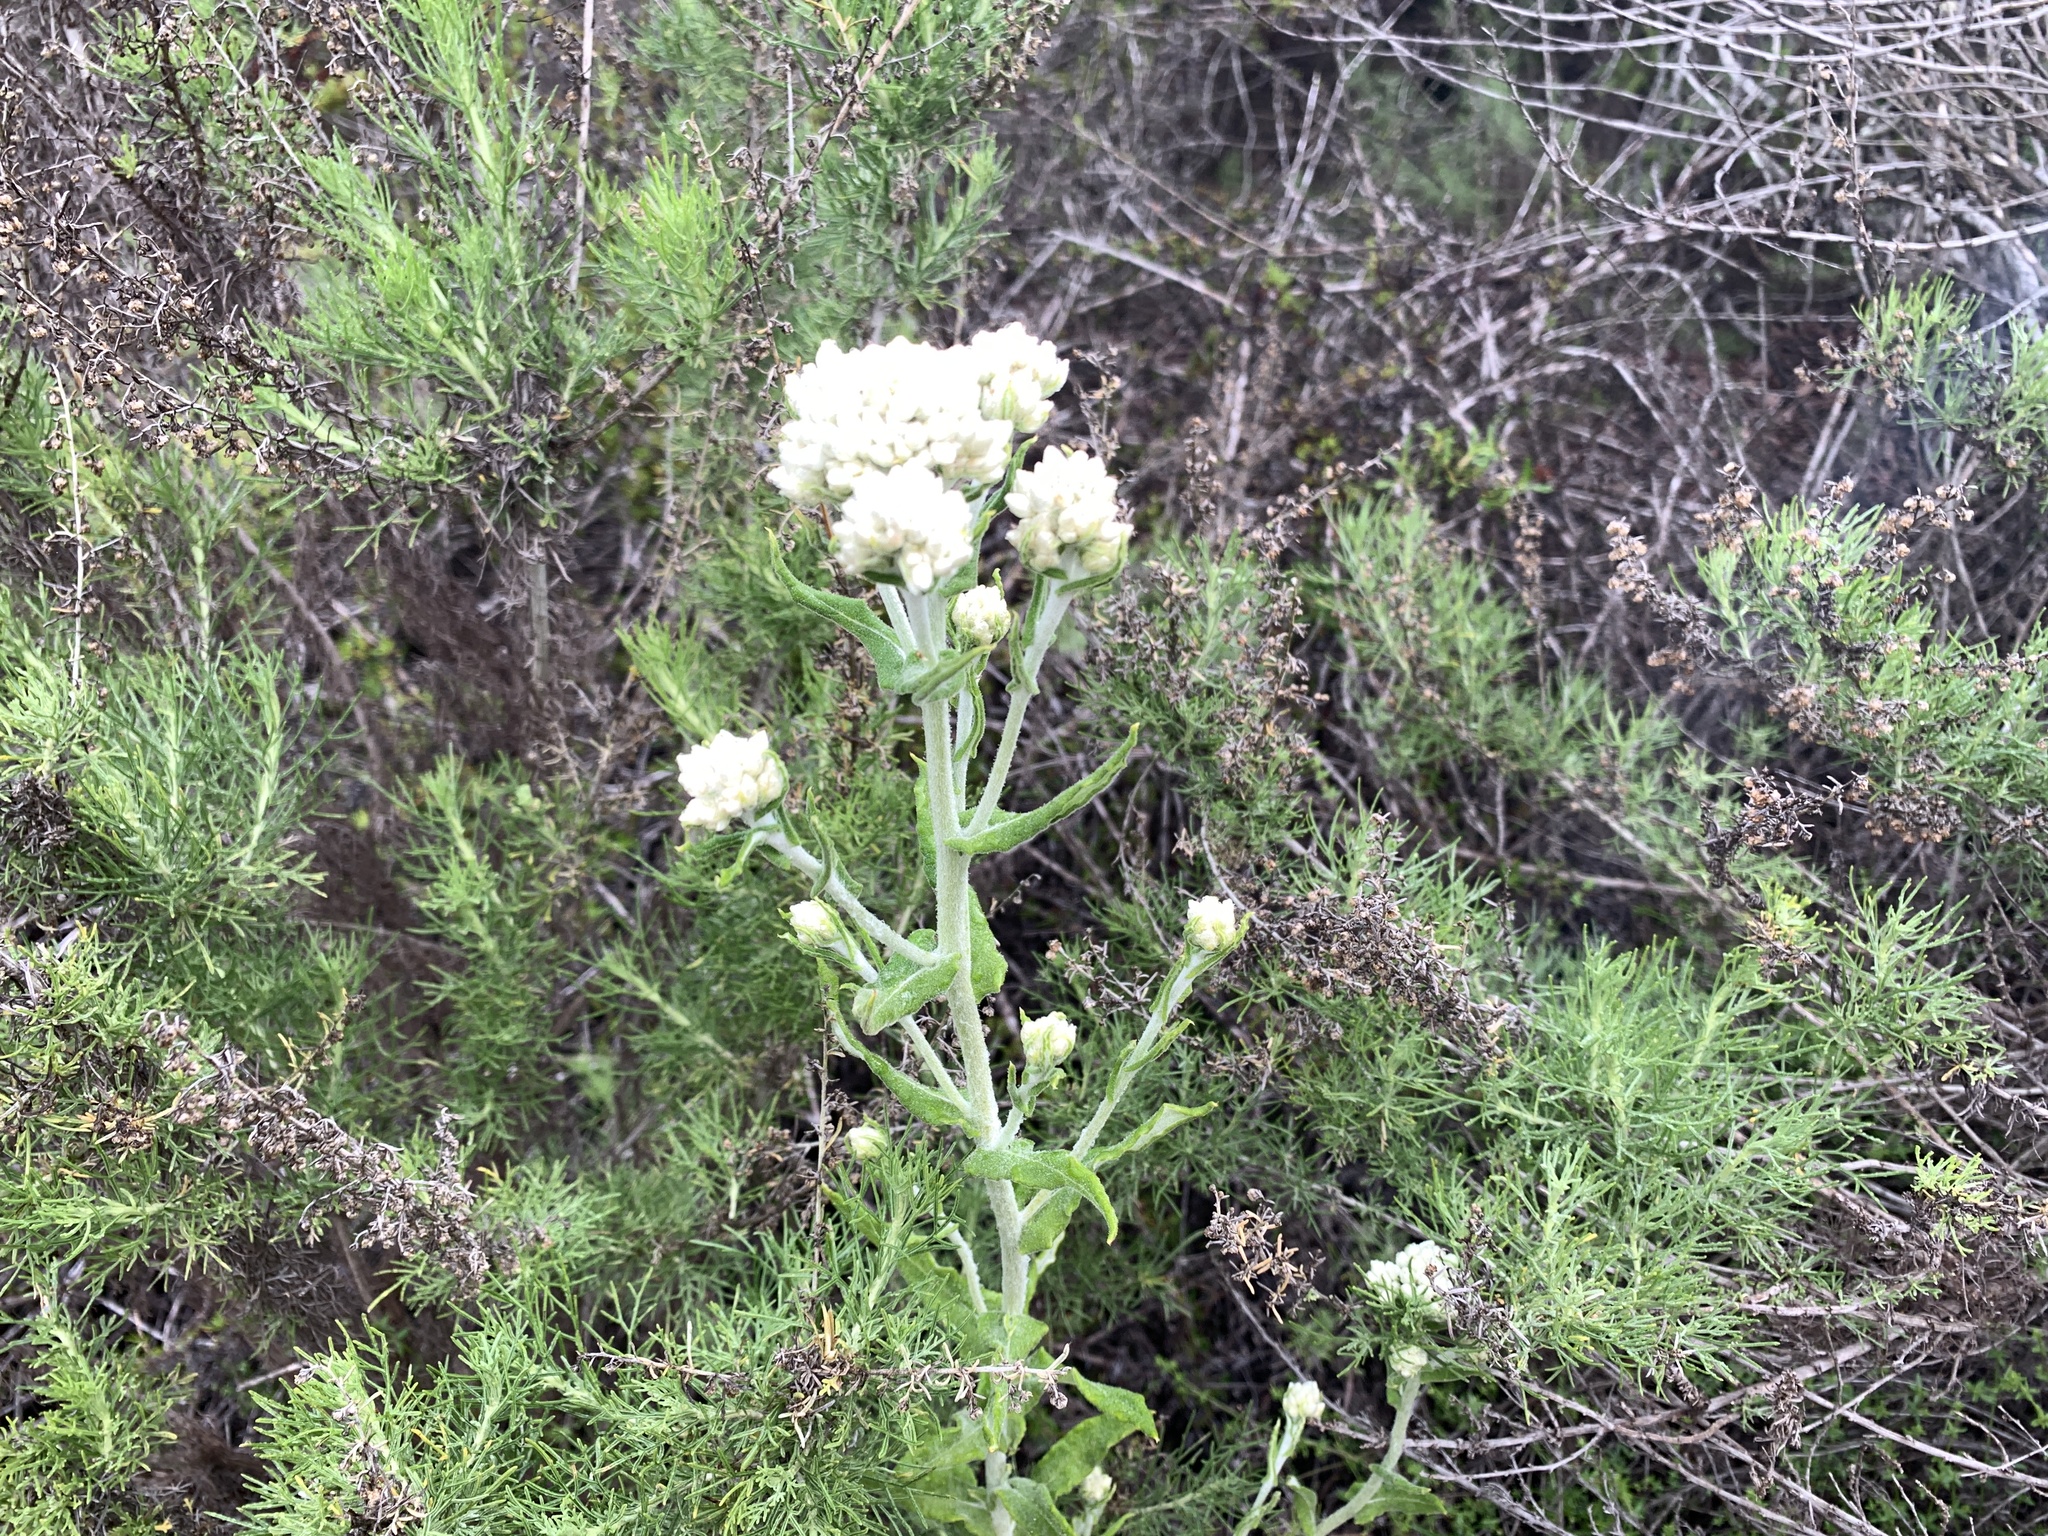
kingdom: Plantae
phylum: Tracheophyta
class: Magnoliopsida
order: Asterales
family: Asteraceae
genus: Pseudognaphalium
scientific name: Pseudognaphalium biolettii
